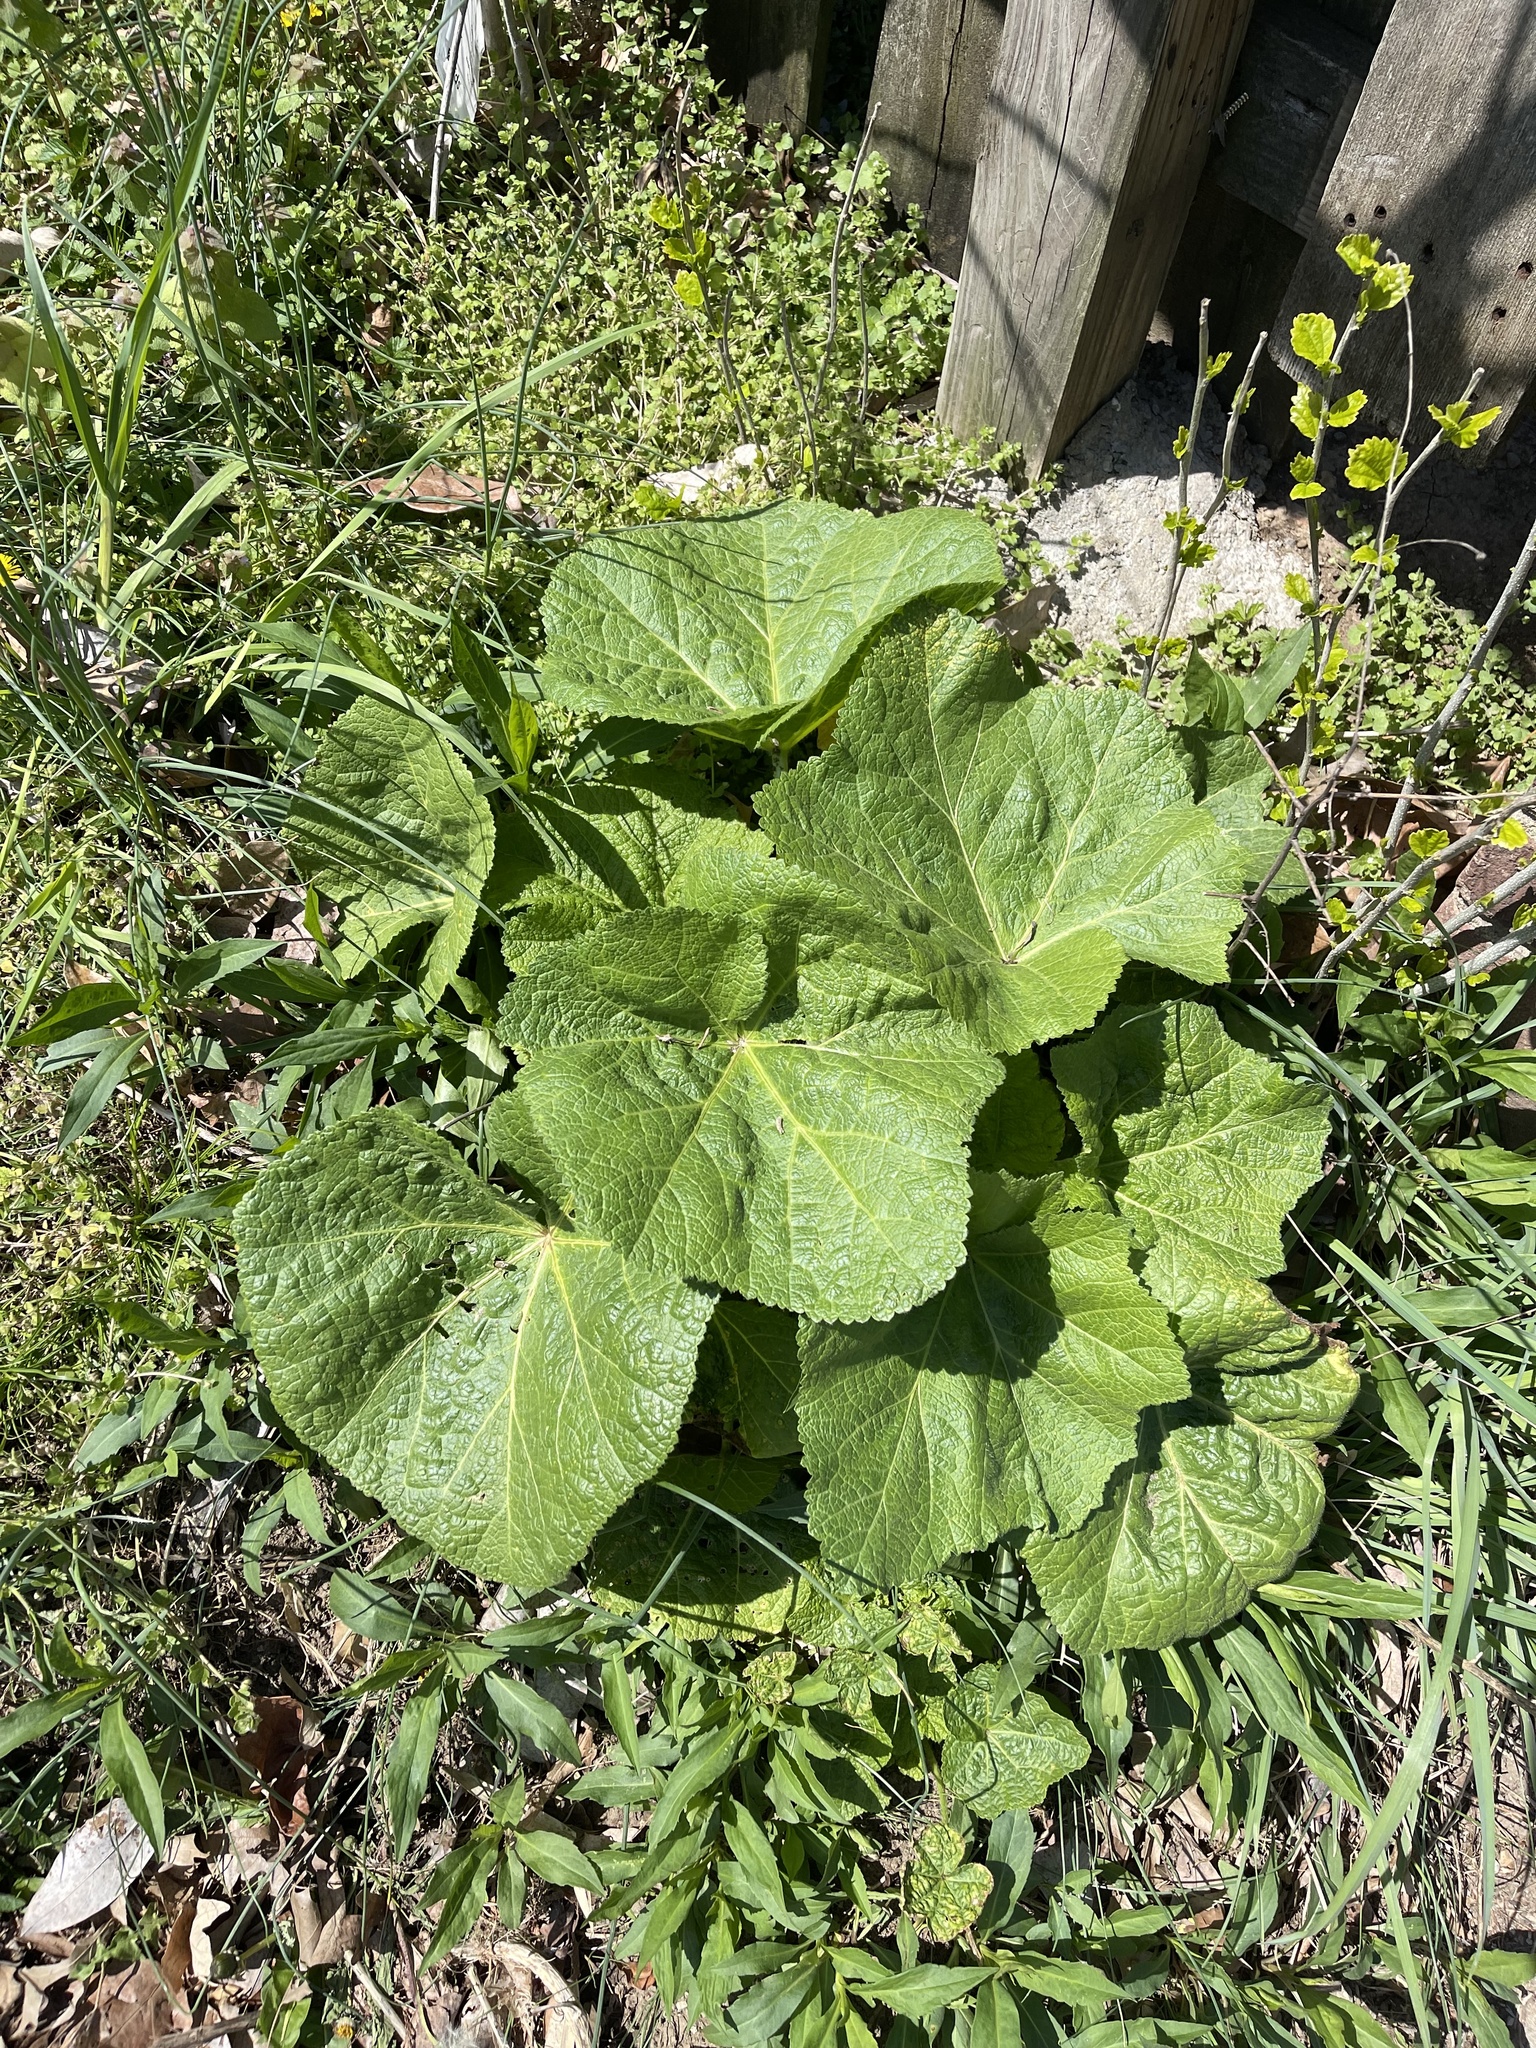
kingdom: Plantae
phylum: Tracheophyta
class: Magnoliopsida
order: Malvales
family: Malvaceae
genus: Alcea
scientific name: Alcea rosea
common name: Hollyhock
